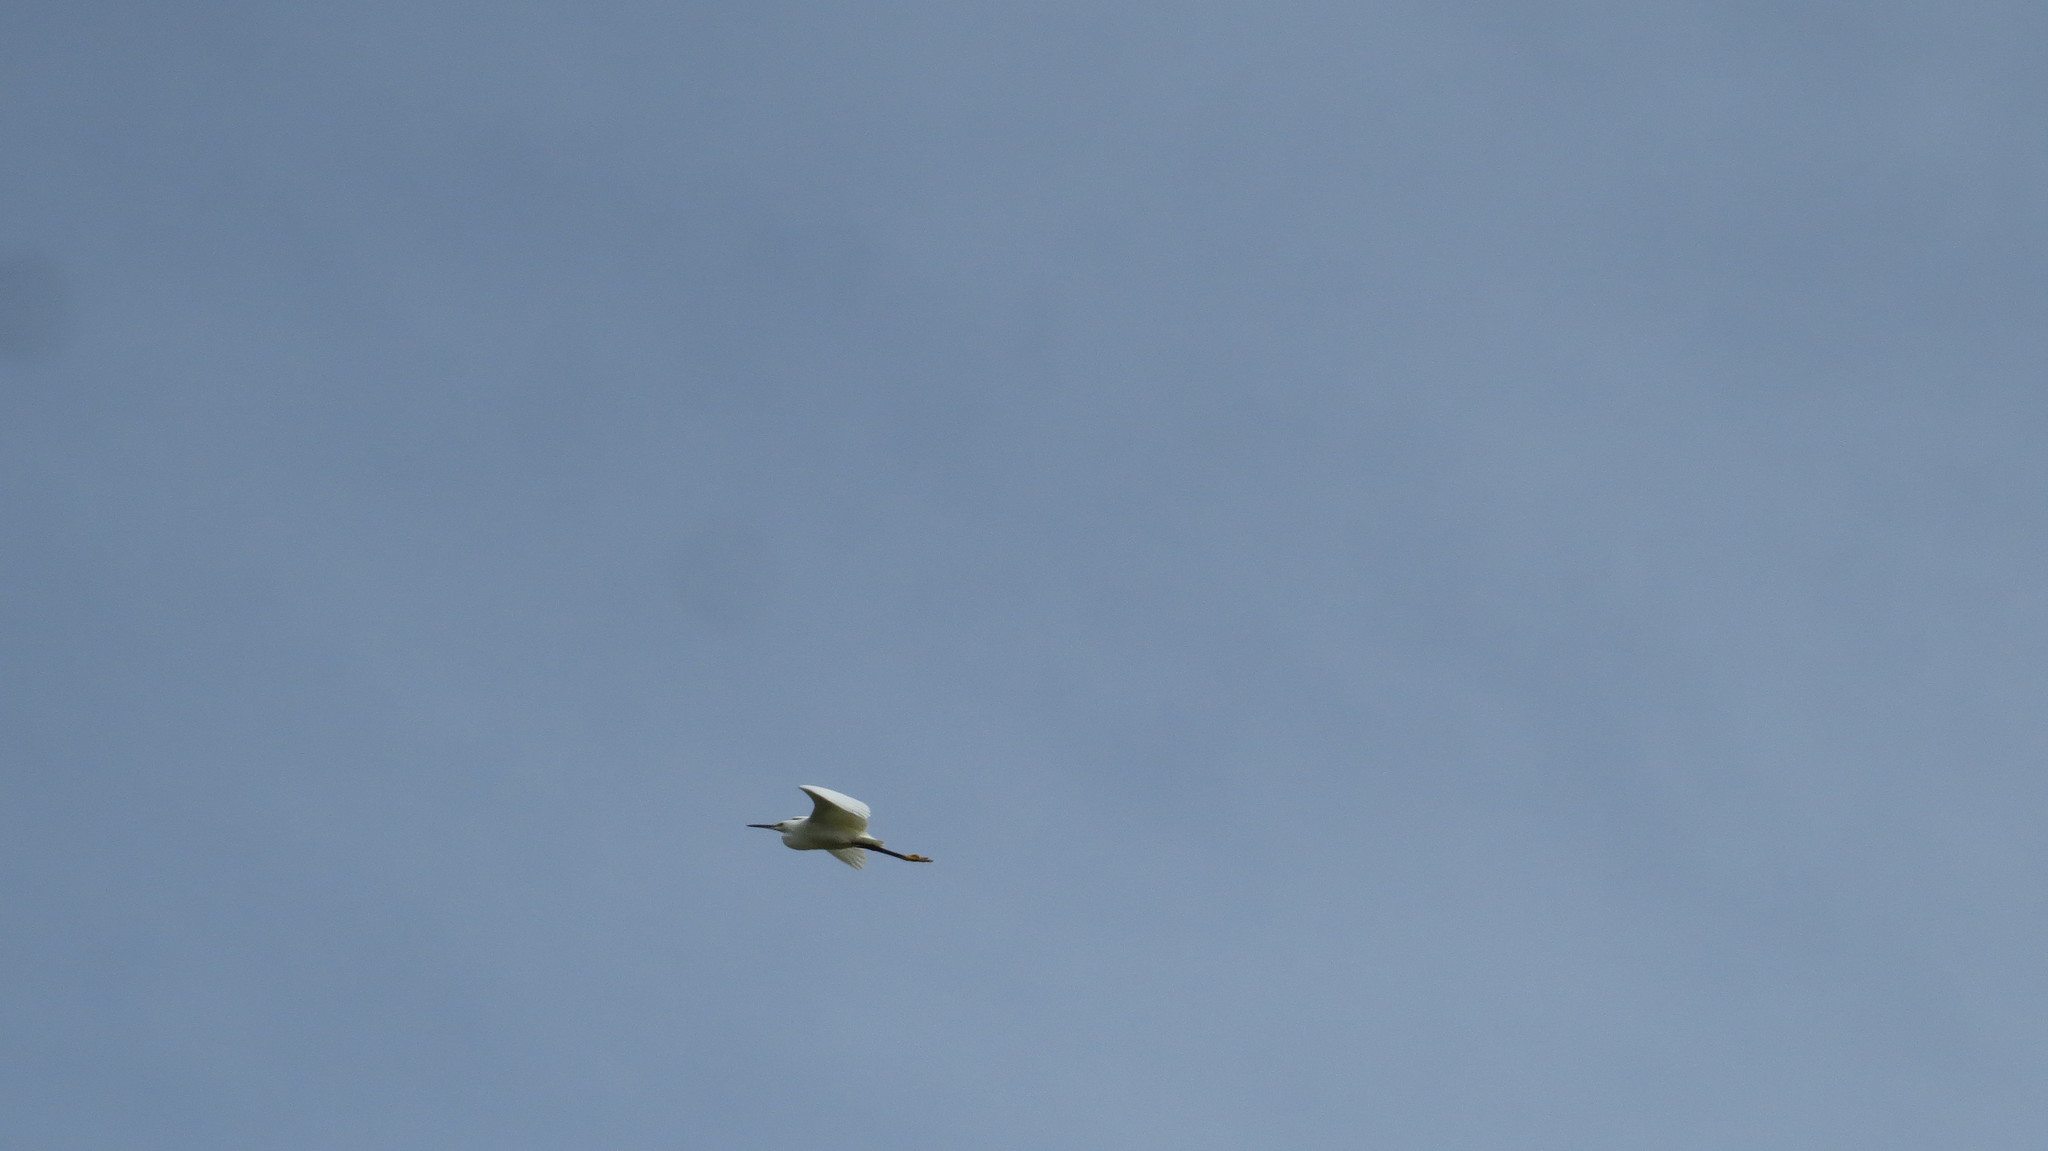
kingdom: Animalia
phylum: Chordata
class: Aves
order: Pelecaniformes
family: Ardeidae
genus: Egretta
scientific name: Egretta thula
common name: Snowy egret
